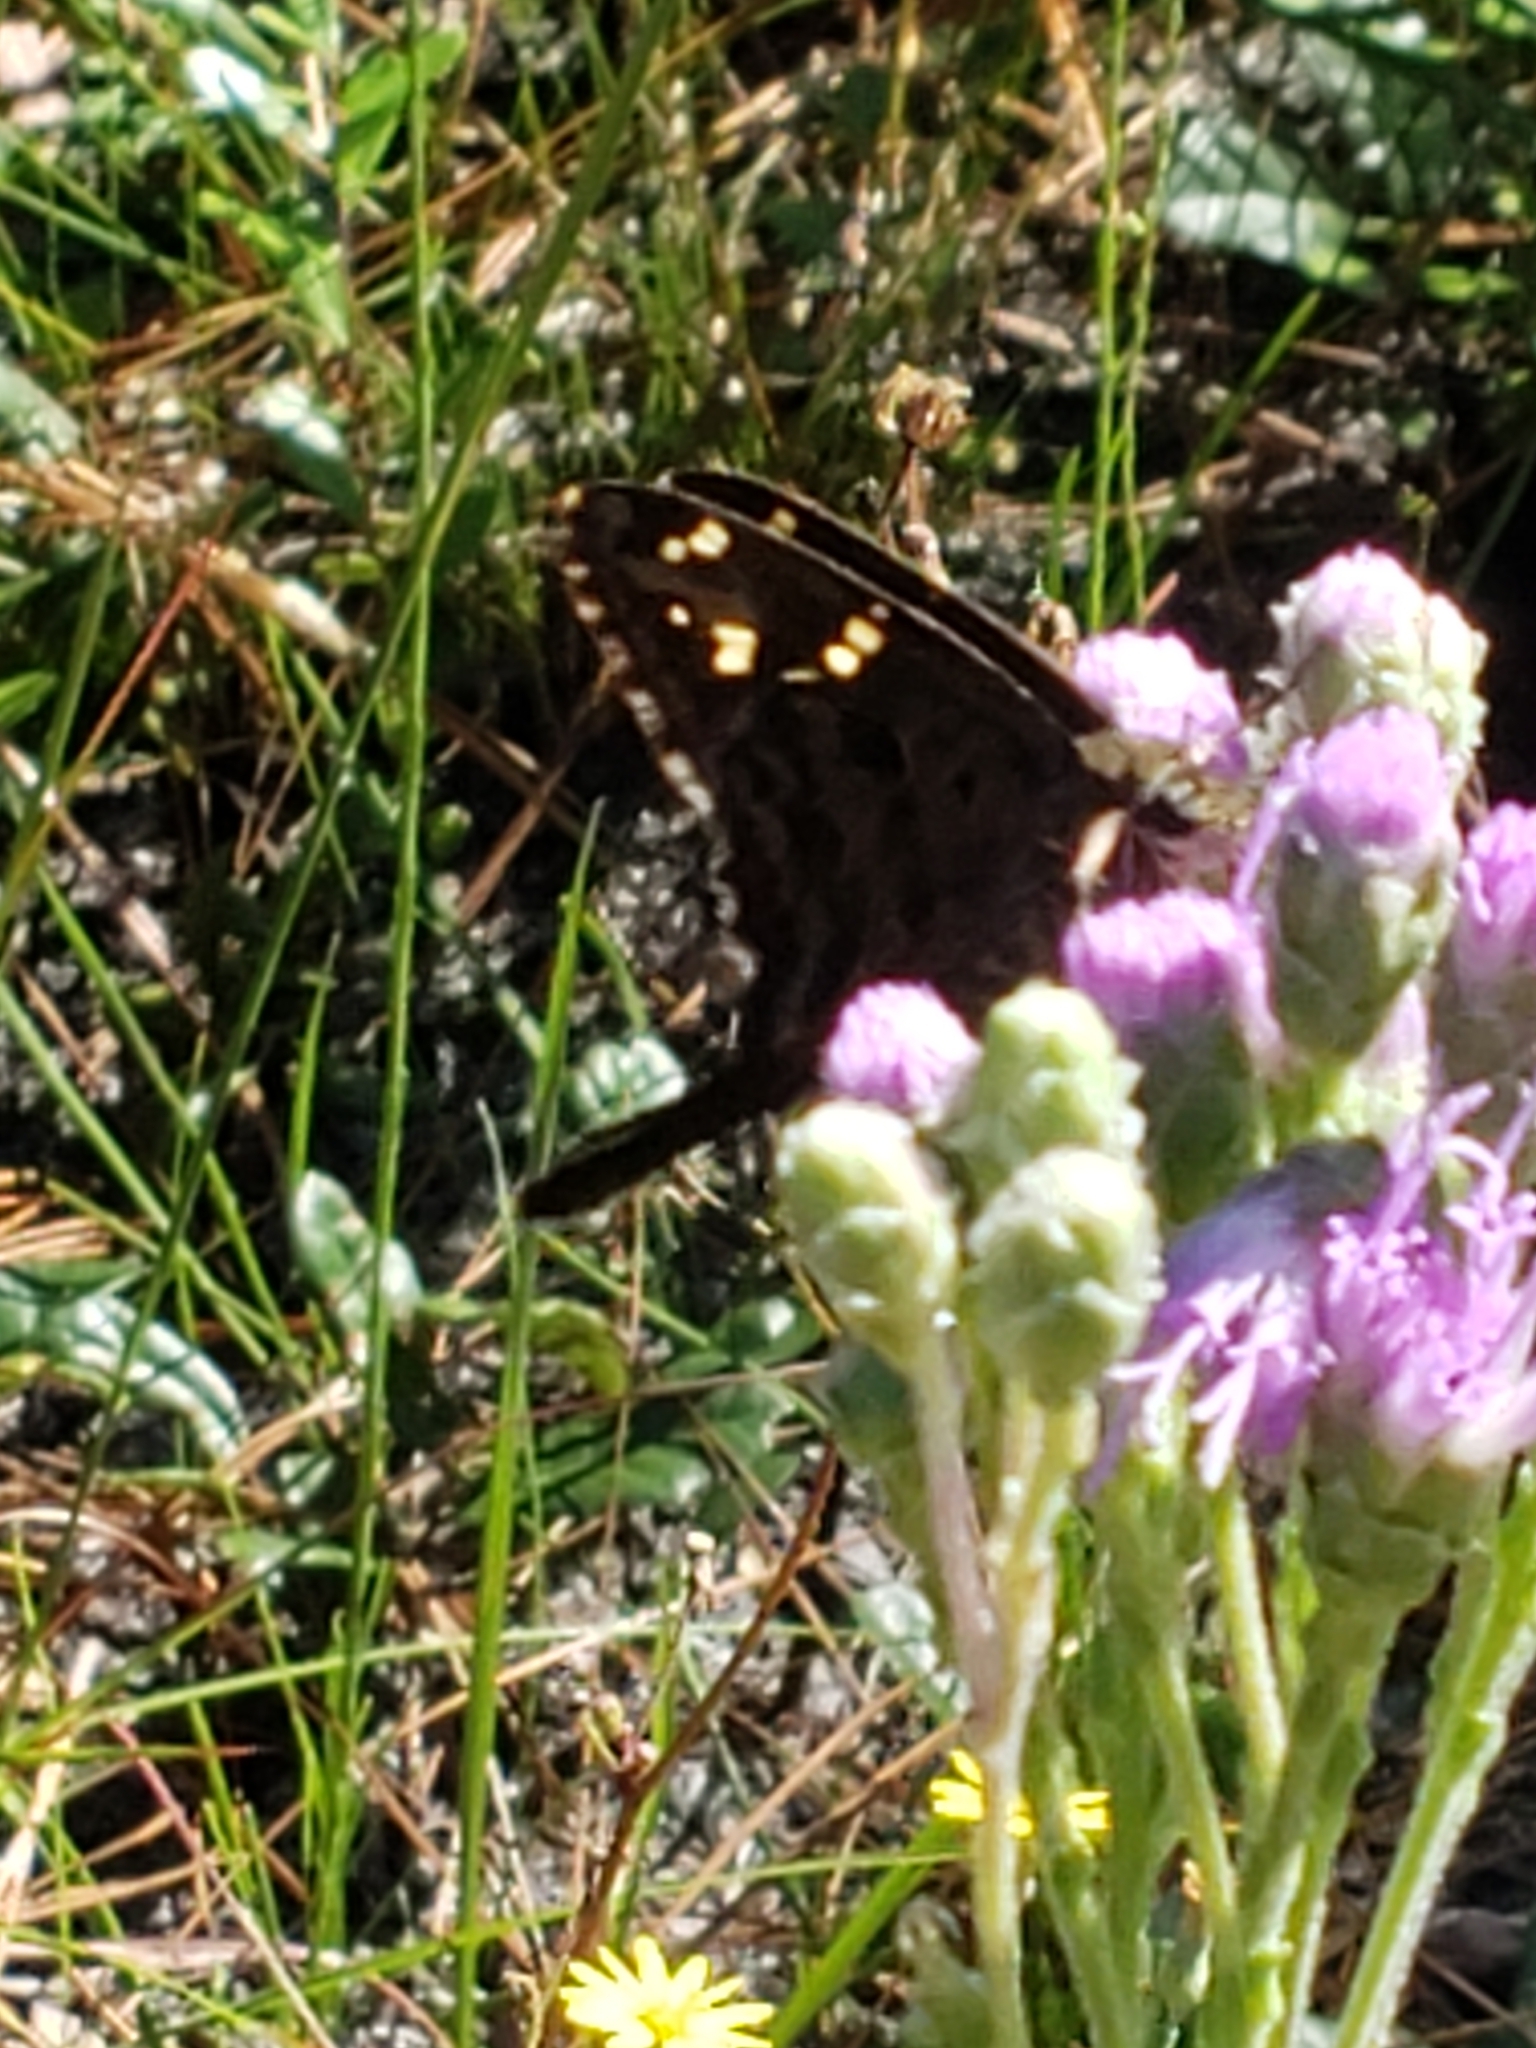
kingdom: Animalia
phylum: Arthropoda
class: Insecta
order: Lepidoptera
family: Hesperiidae
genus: Thorybes
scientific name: Thorybes
